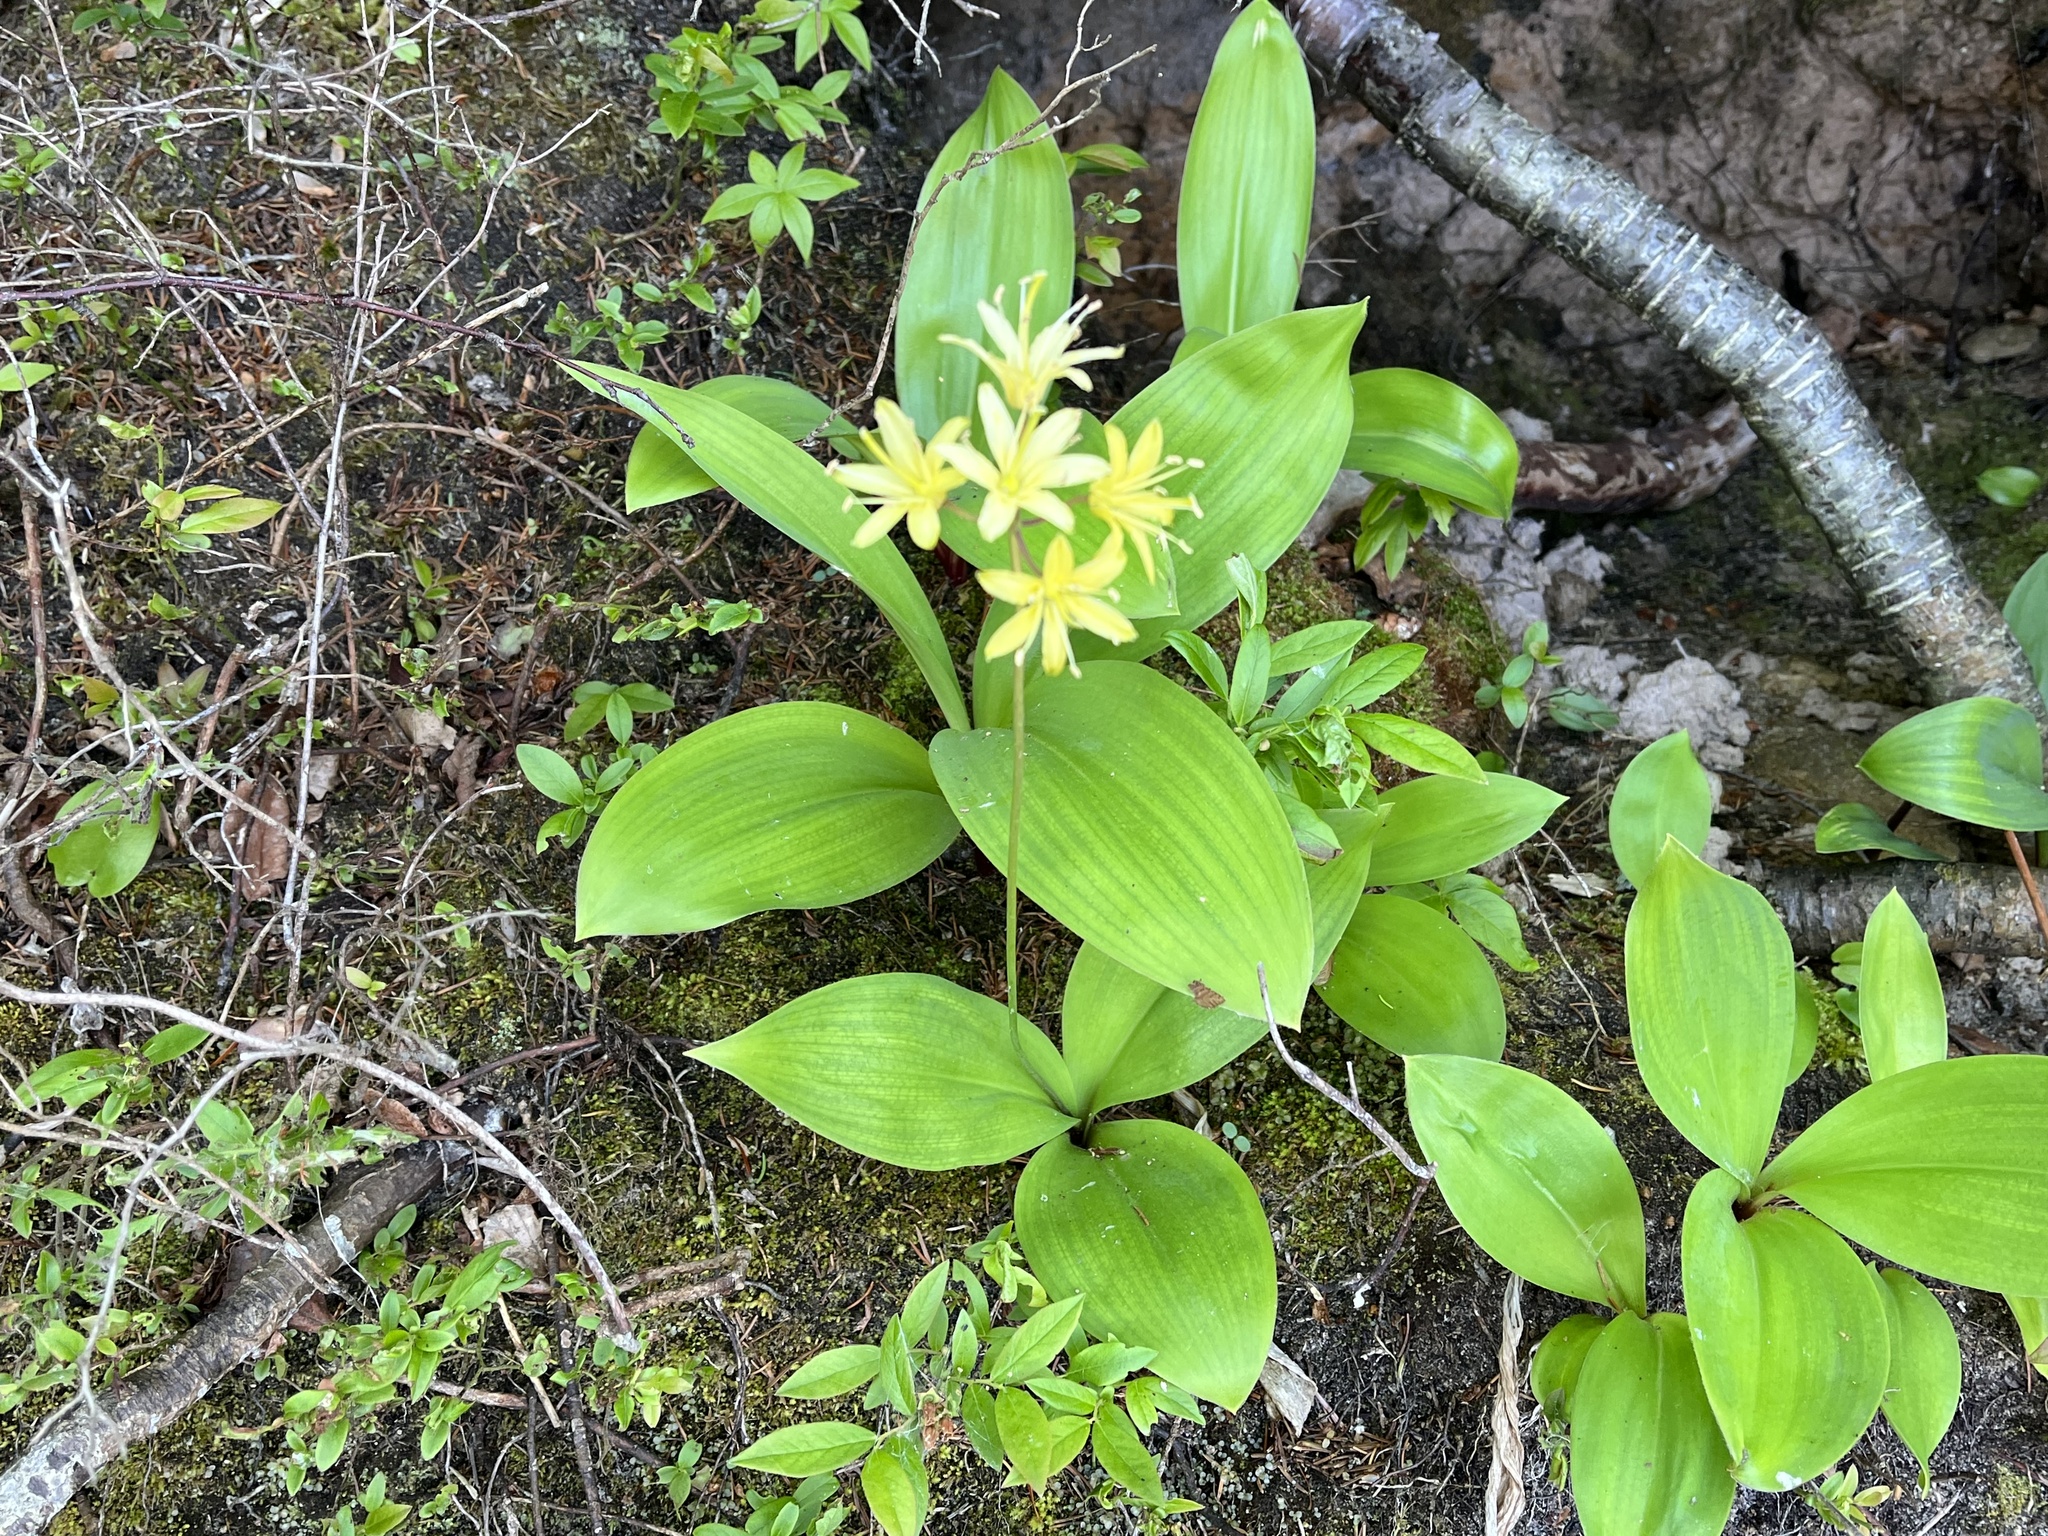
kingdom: Plantae
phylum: Tracheophyta
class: Liliopsida
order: Liliales
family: Liliaceae
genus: Clintonia
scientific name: Clintonia borealis
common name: Yellow clintonia
